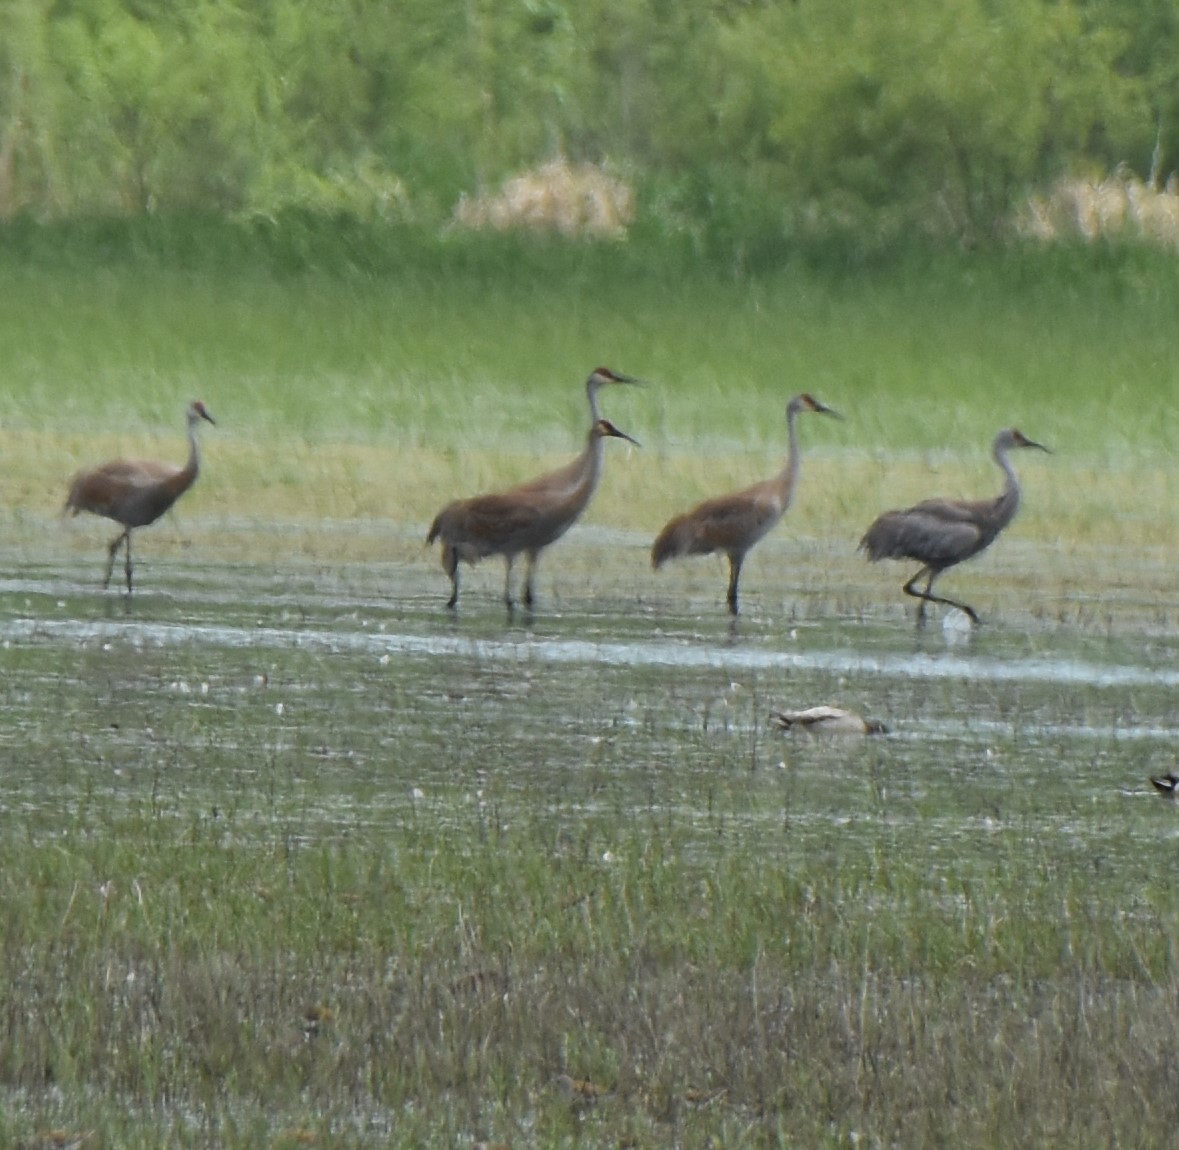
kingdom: Animalia
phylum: Chordata
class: Aves
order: Gruiformes
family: Gruidae
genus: Grus
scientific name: Grus canadensis
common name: Sandhill crane
